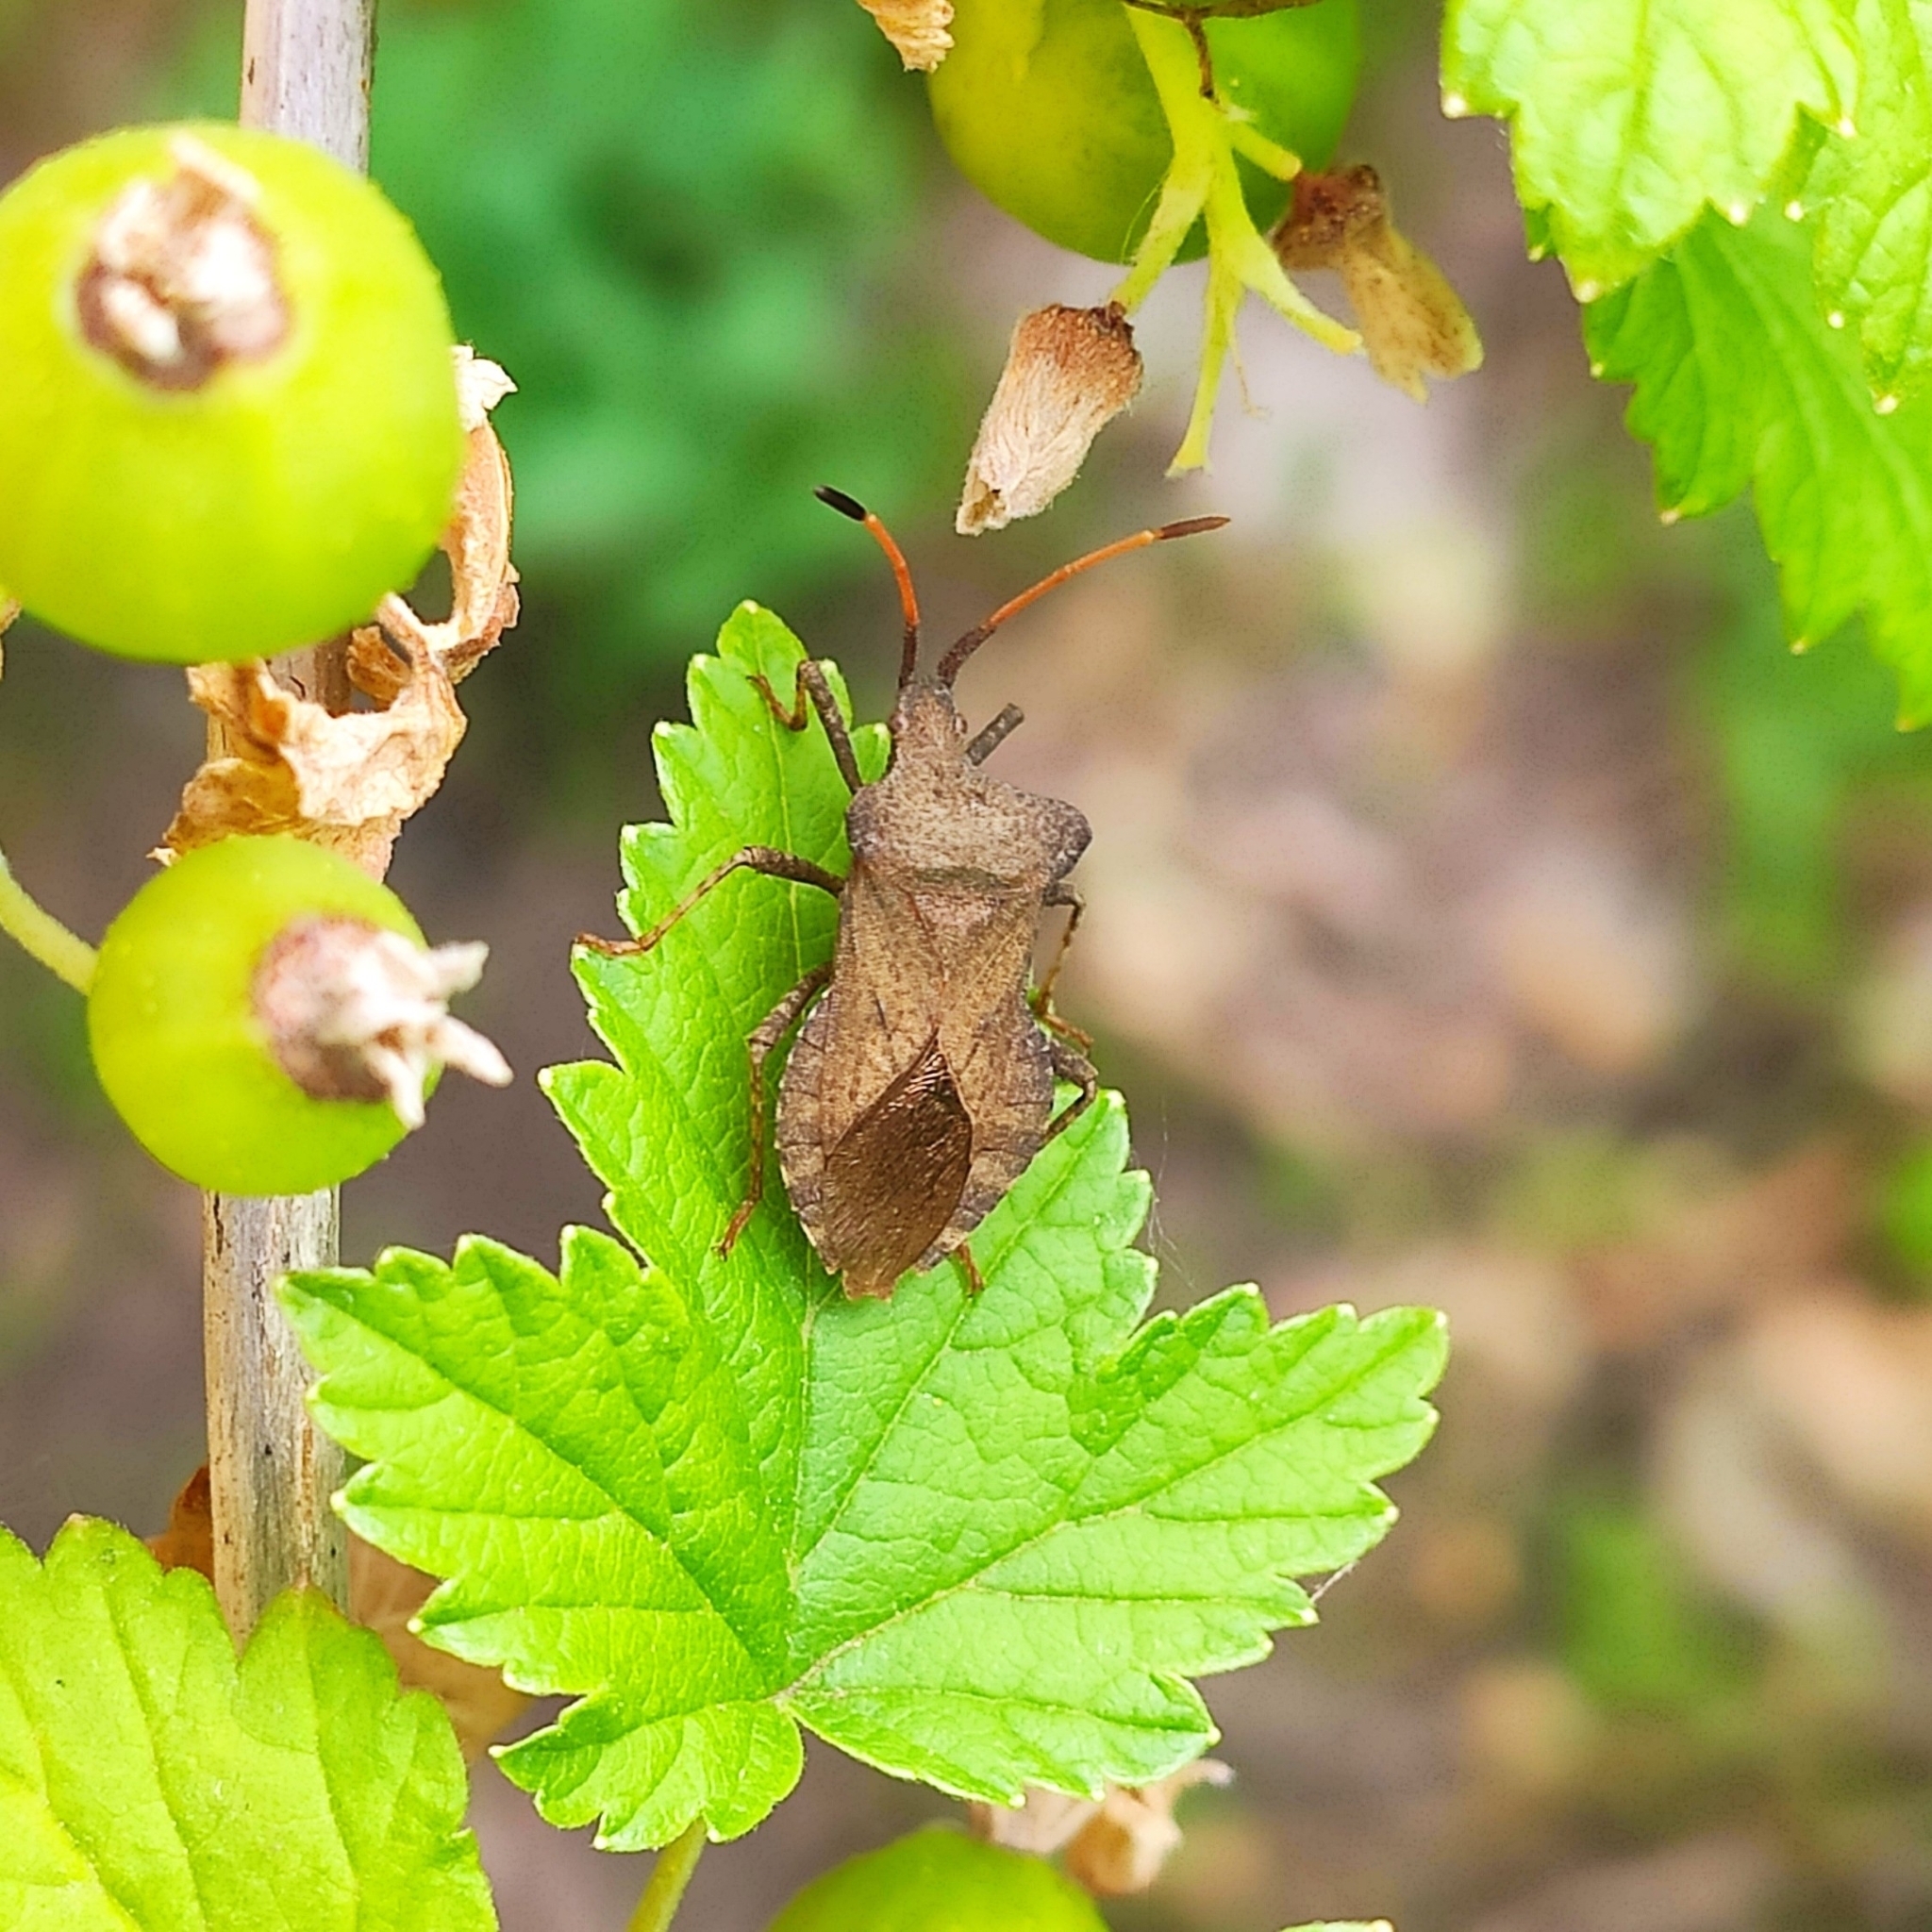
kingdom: Animalia
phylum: Arthropoda
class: Insecta
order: Hemiptera
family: Coreidae
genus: Coreus
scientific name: Coreus marginatus
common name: Dock bug
